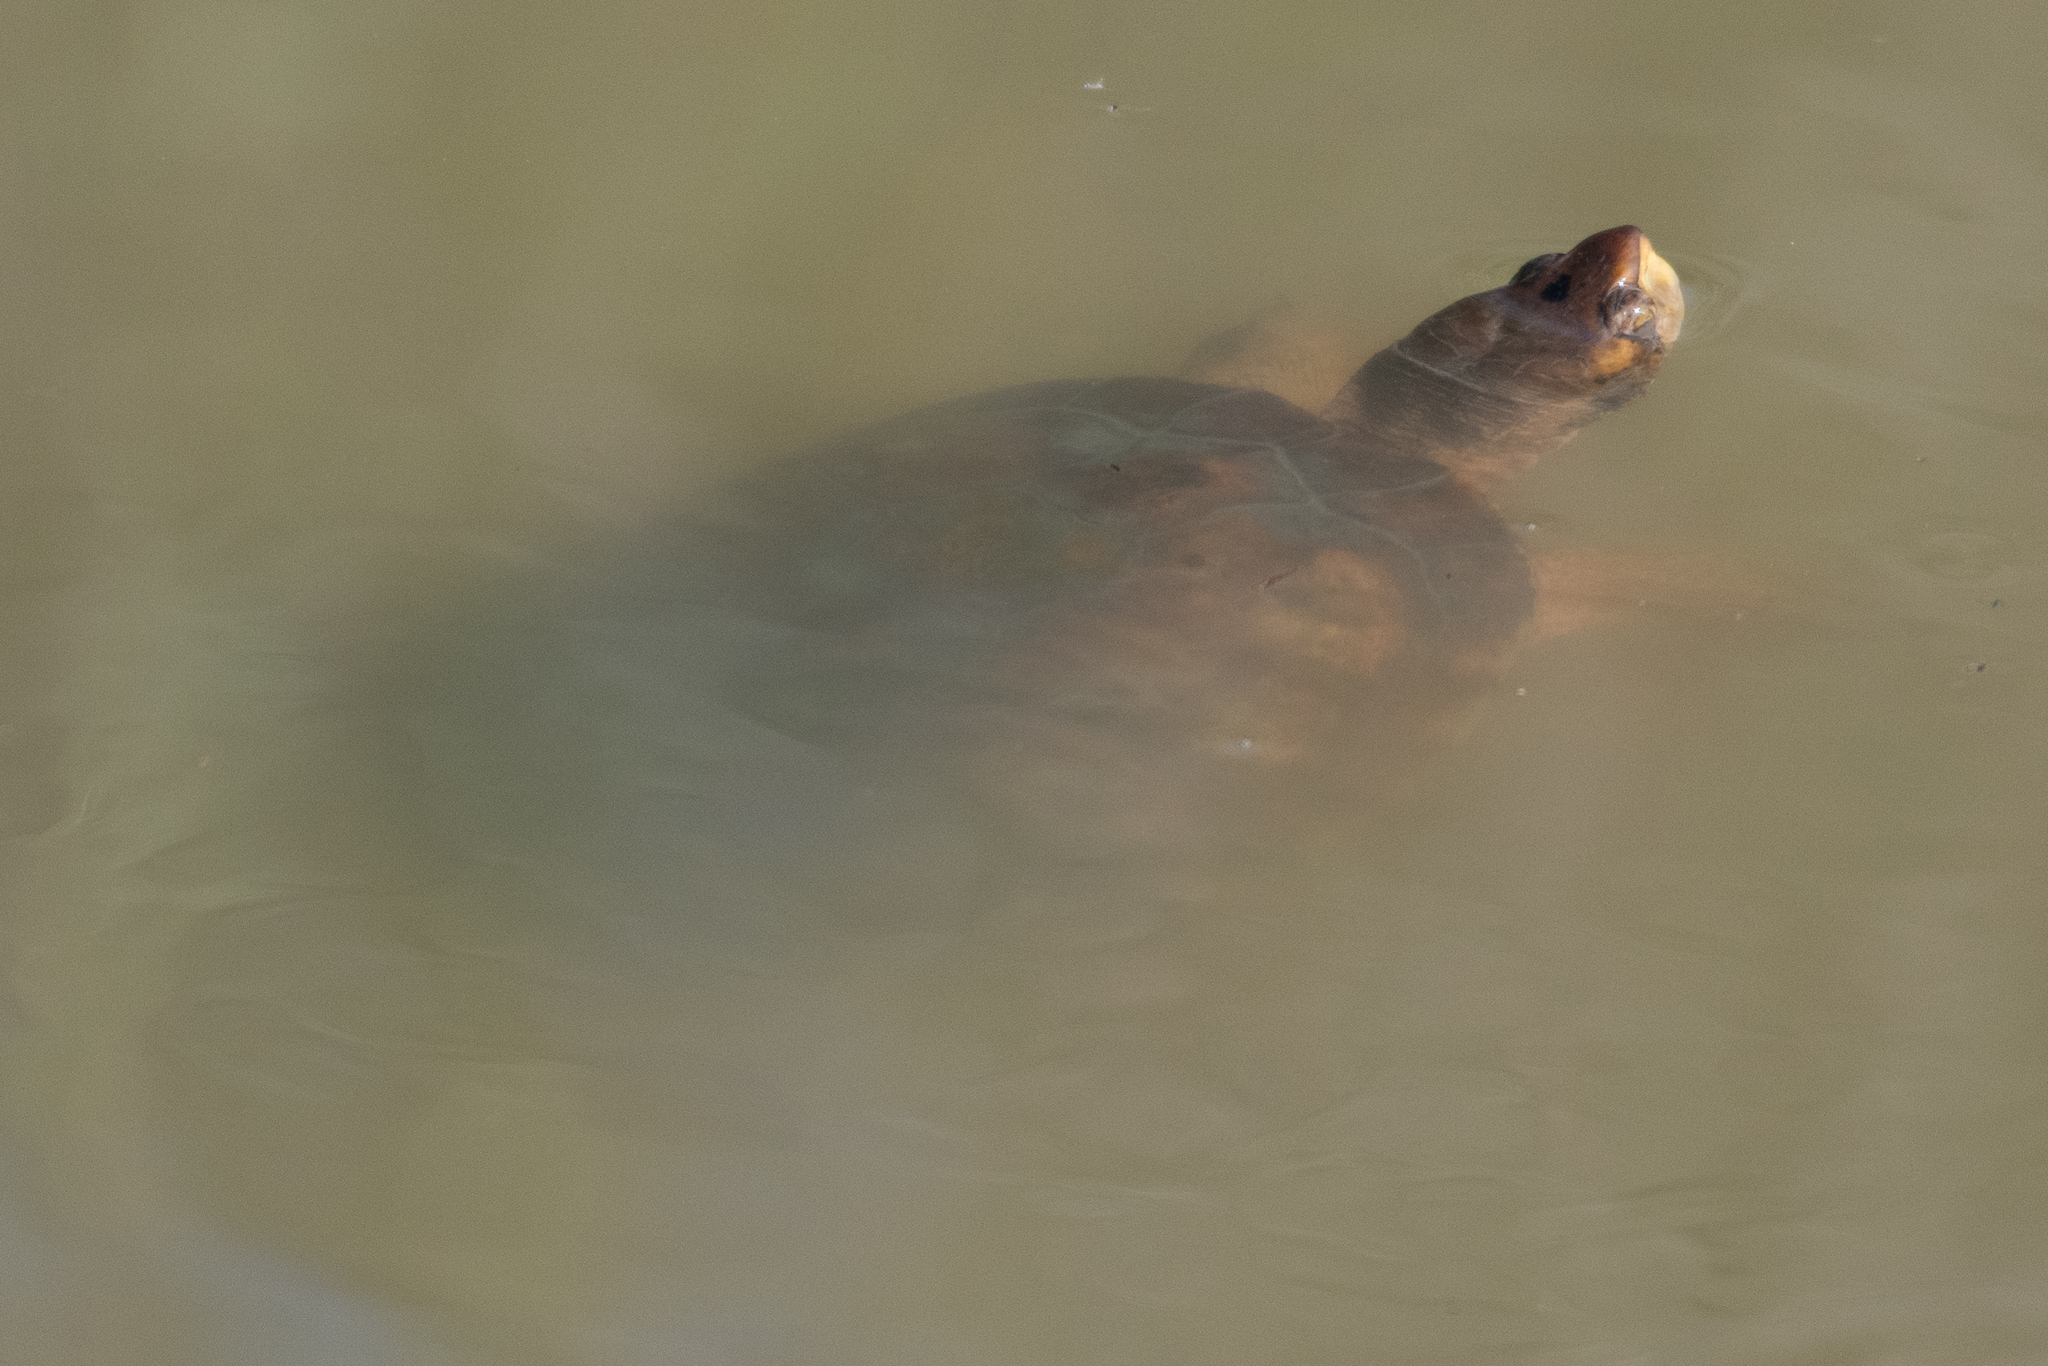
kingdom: Animalia
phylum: Chordata
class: Testudines
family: Emydidae
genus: Actinemys
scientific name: Actinemys marmorata
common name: Western pond turtle
